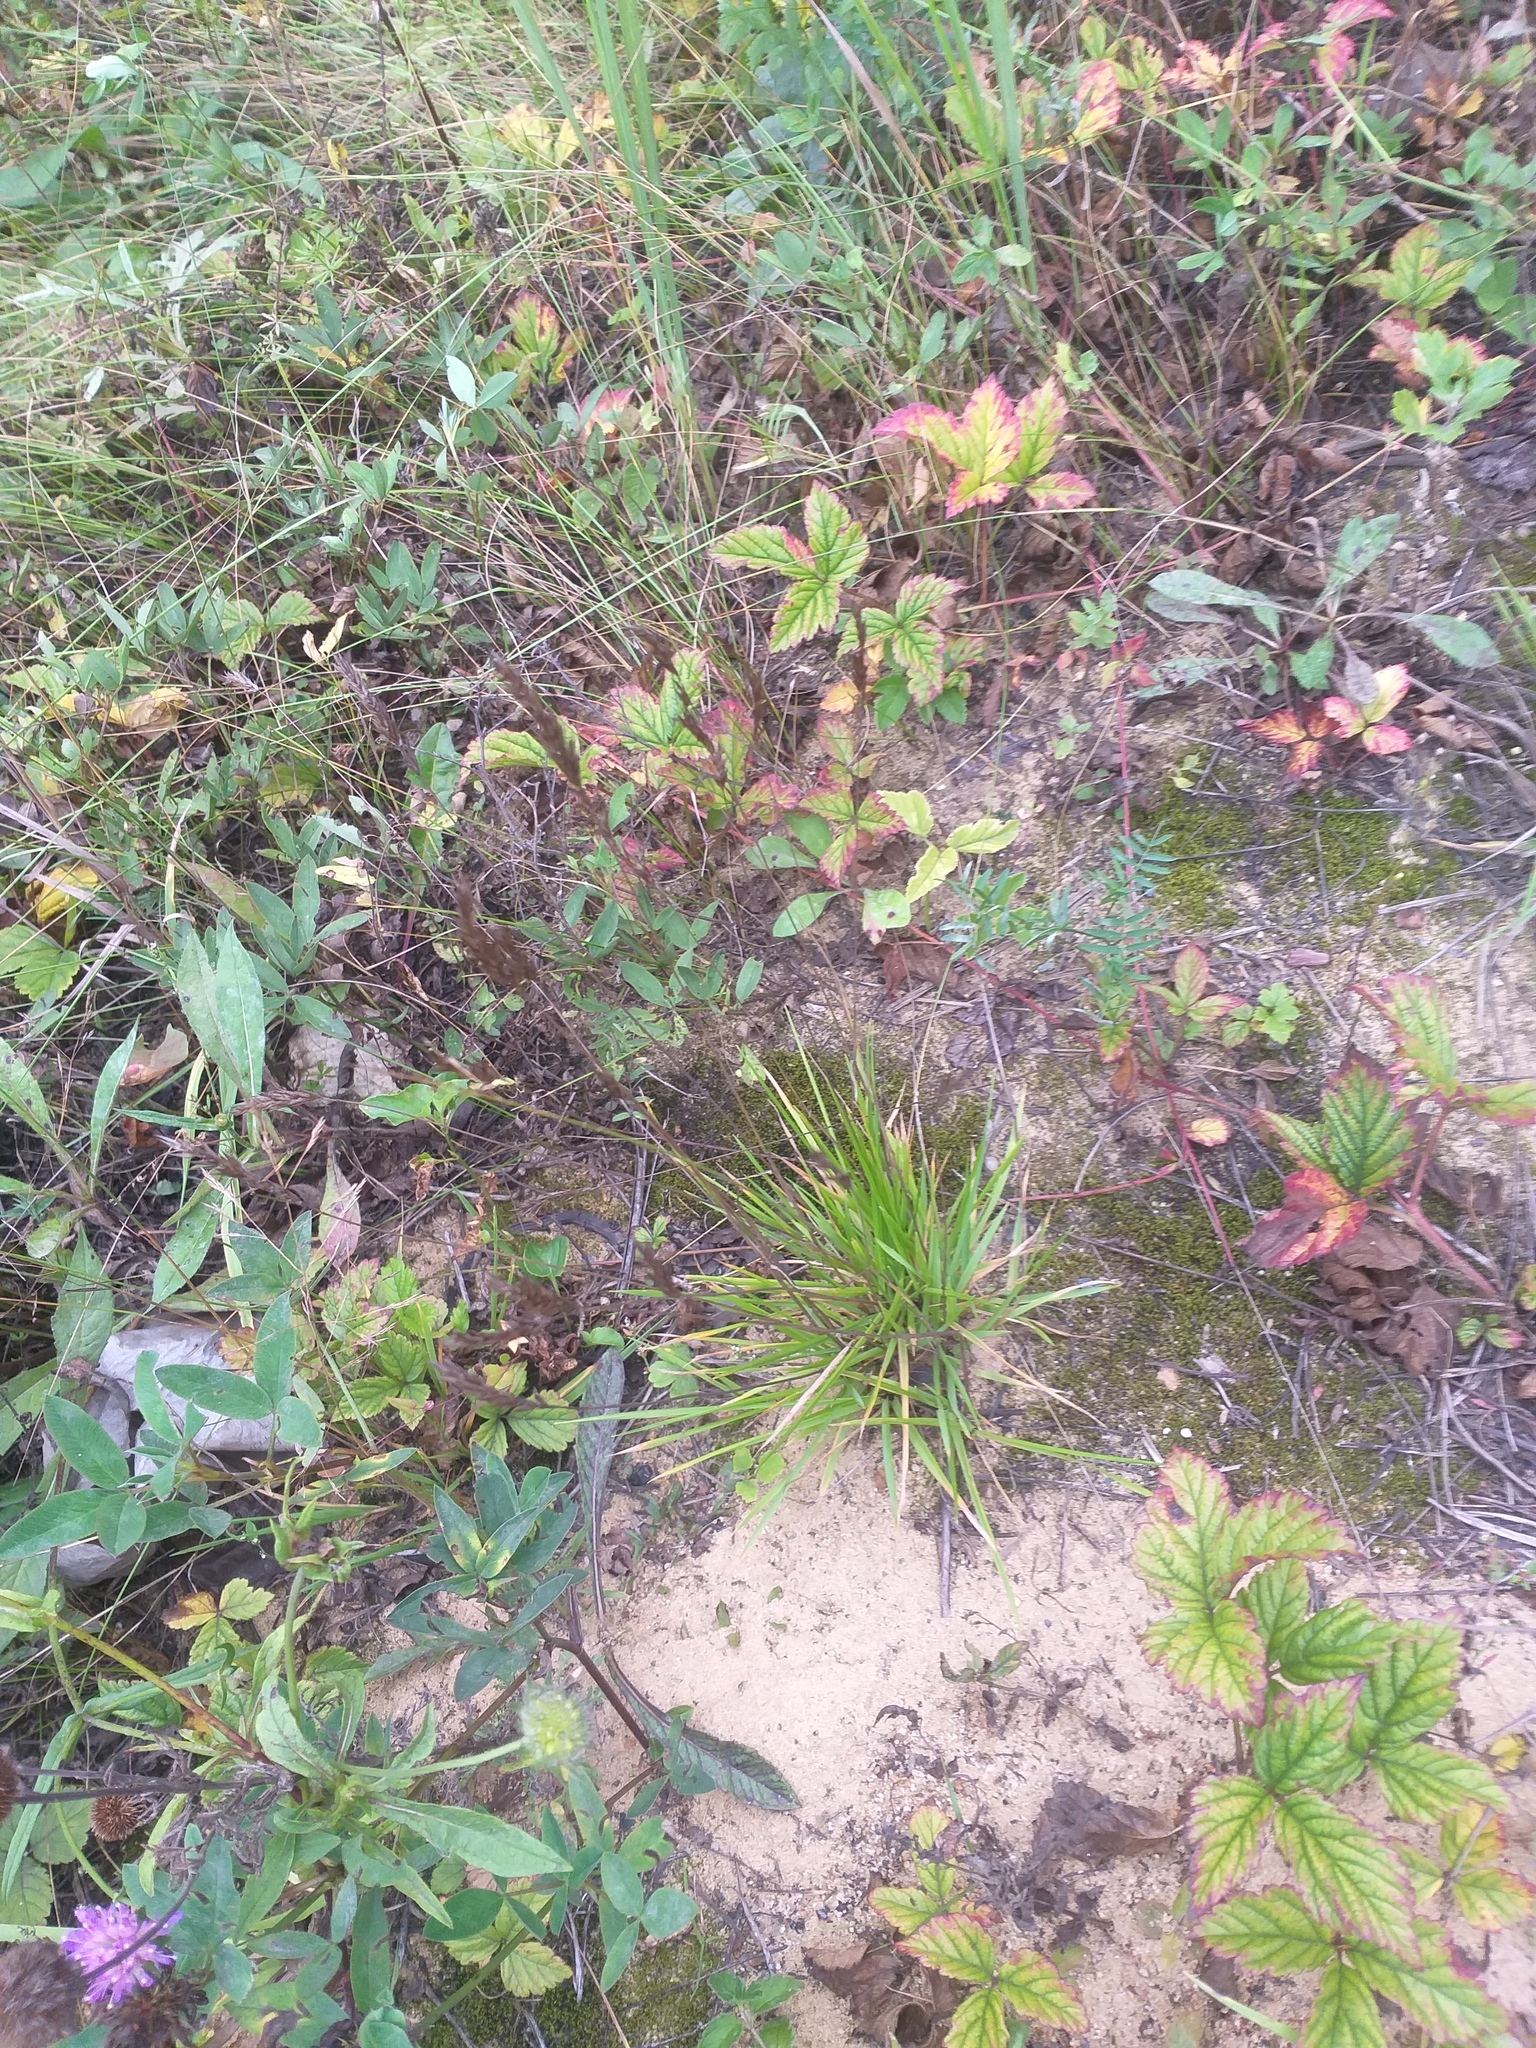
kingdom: Plantae
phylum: Tracheophyta
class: Liliopsida
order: Poales
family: Poaceae
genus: Anthoxanthum
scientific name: Anthoxanthum odoratum
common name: Sweet vernalgrass
